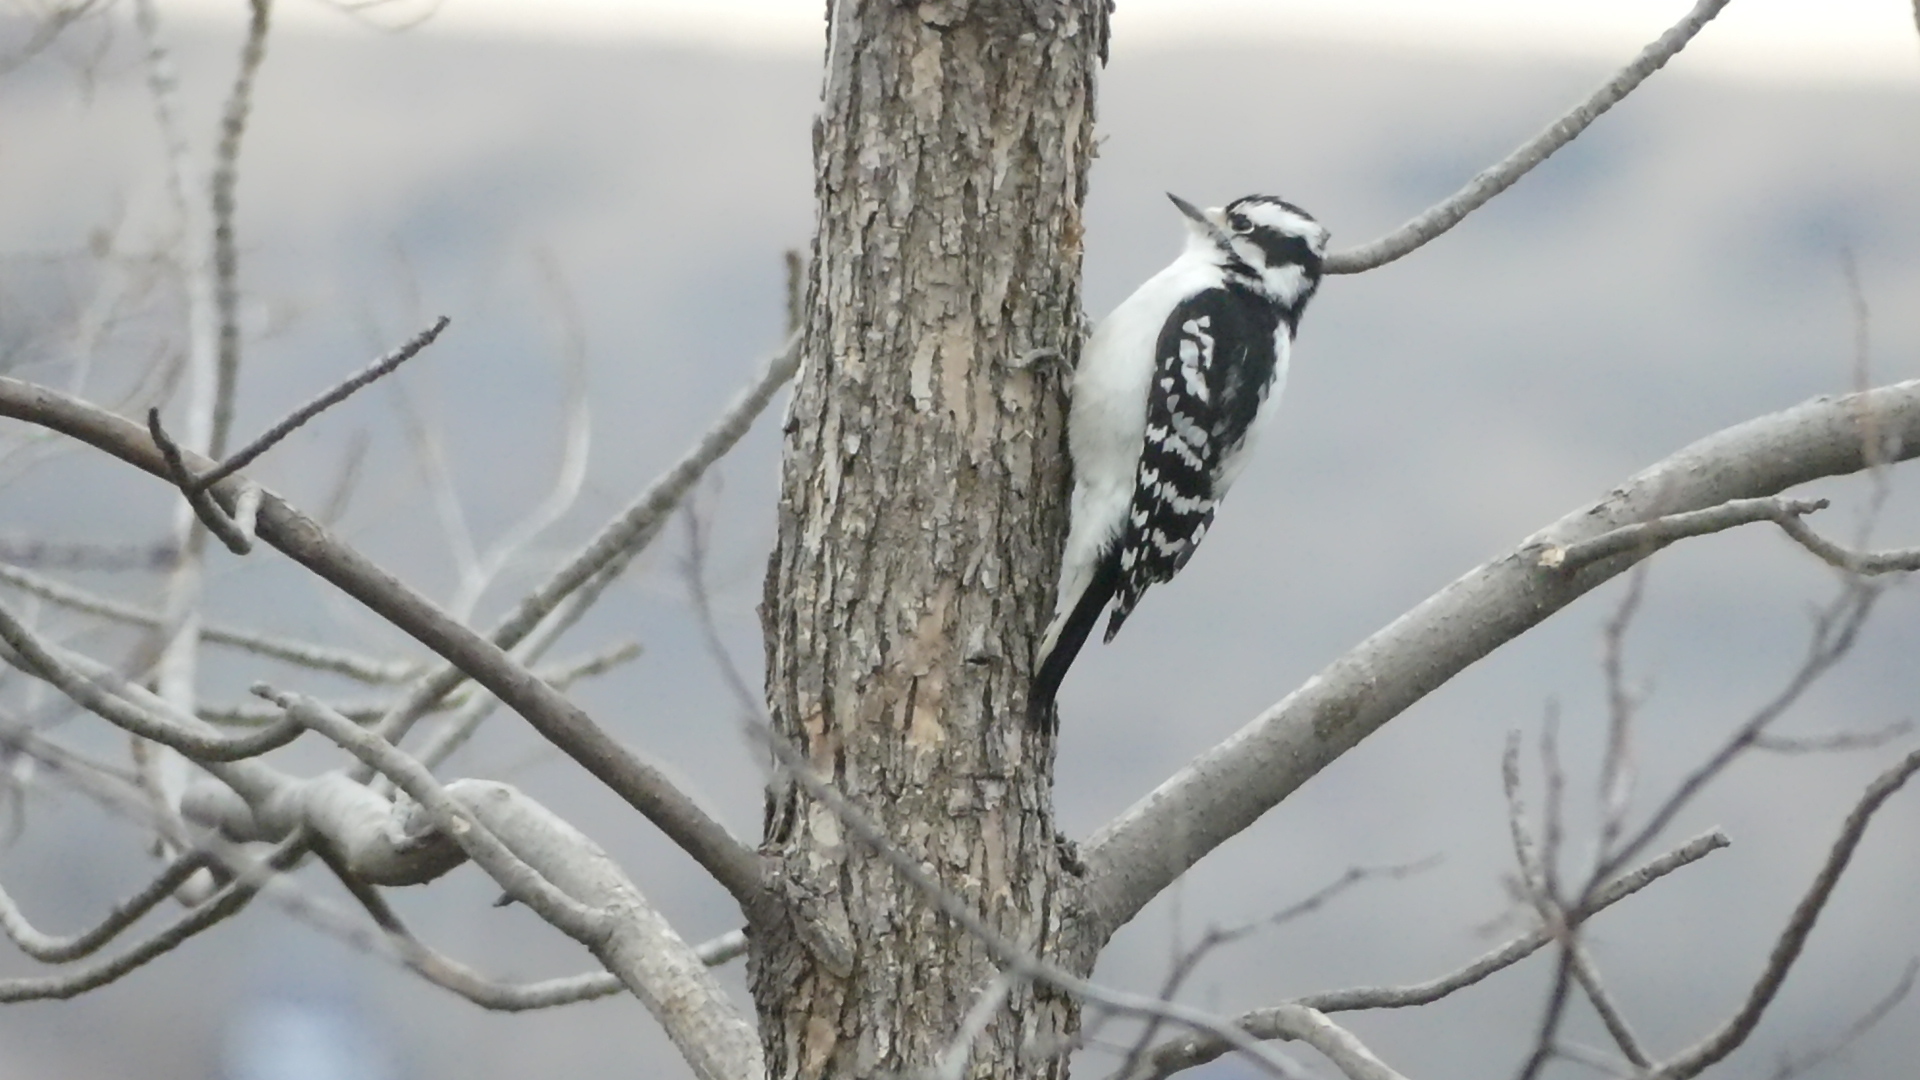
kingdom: Animalia
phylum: Chordata
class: Aves
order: Piciformes
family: Picidae
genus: Dryobates
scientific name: Dryobates pubescens
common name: Downy woodpecker
